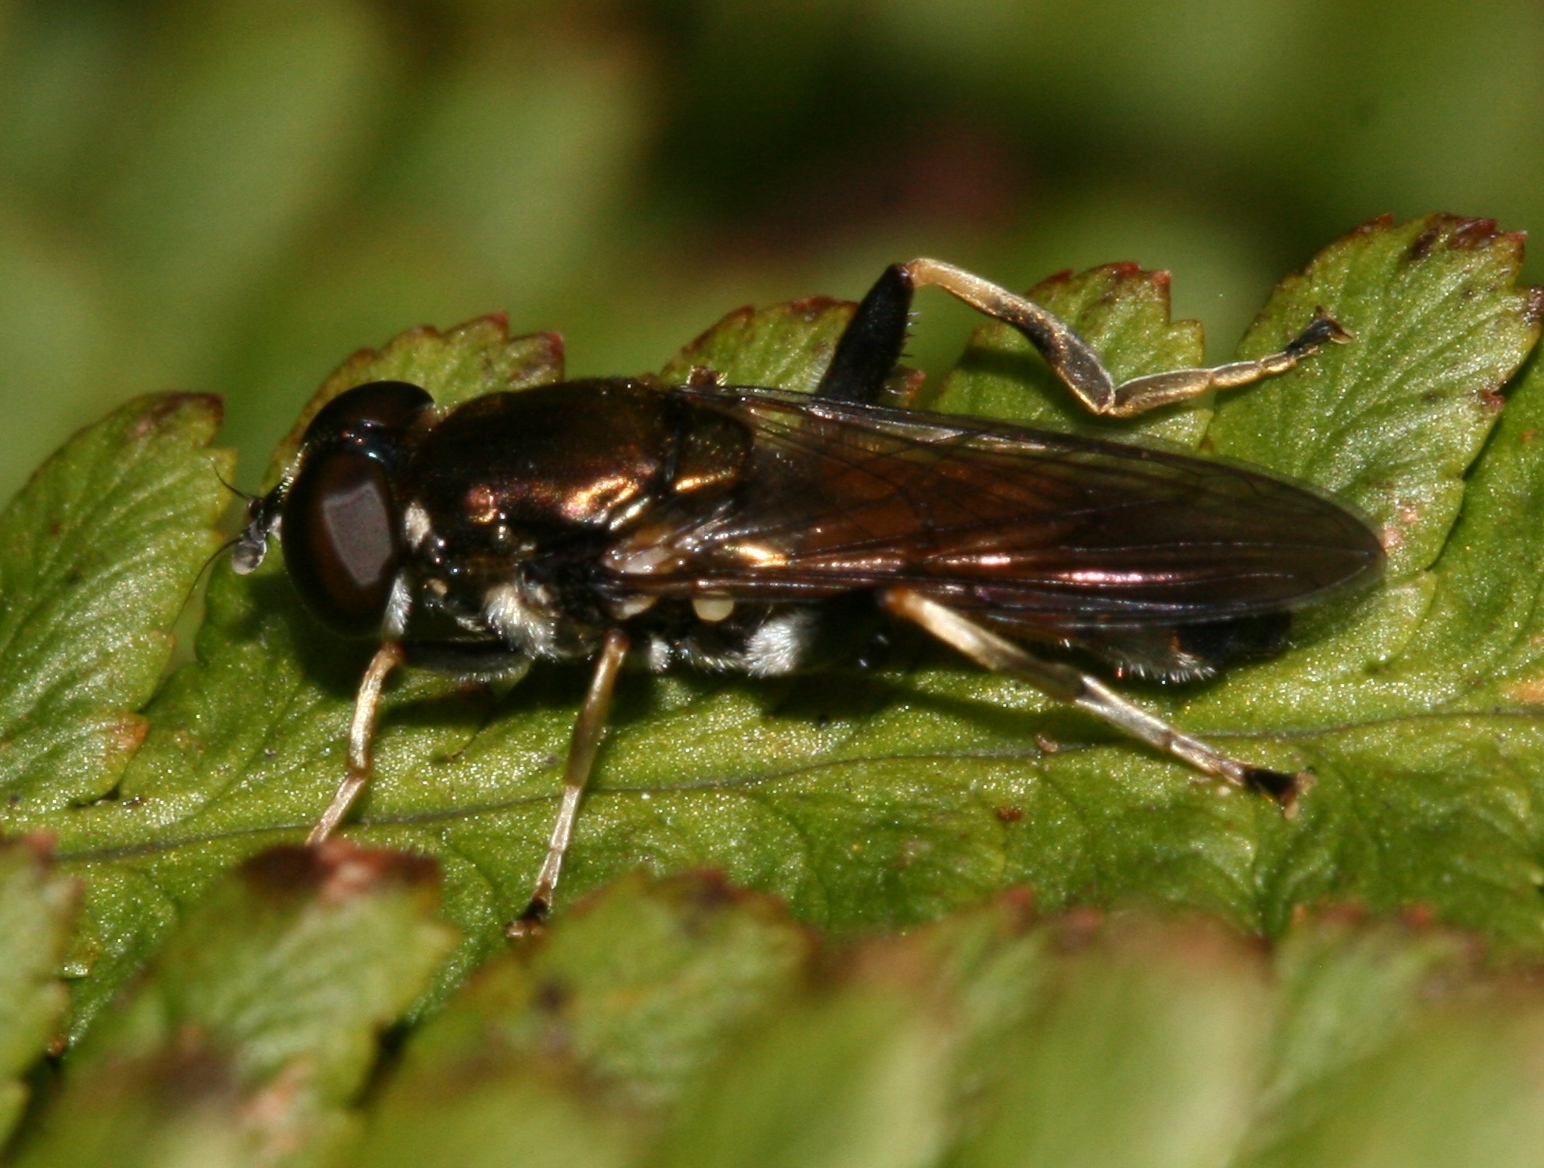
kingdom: Animalia
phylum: Arthropoda
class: Insecta
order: Diptera
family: Syrphidae
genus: Xylota
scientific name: Xylota segnis
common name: Brown-toed forest fly
